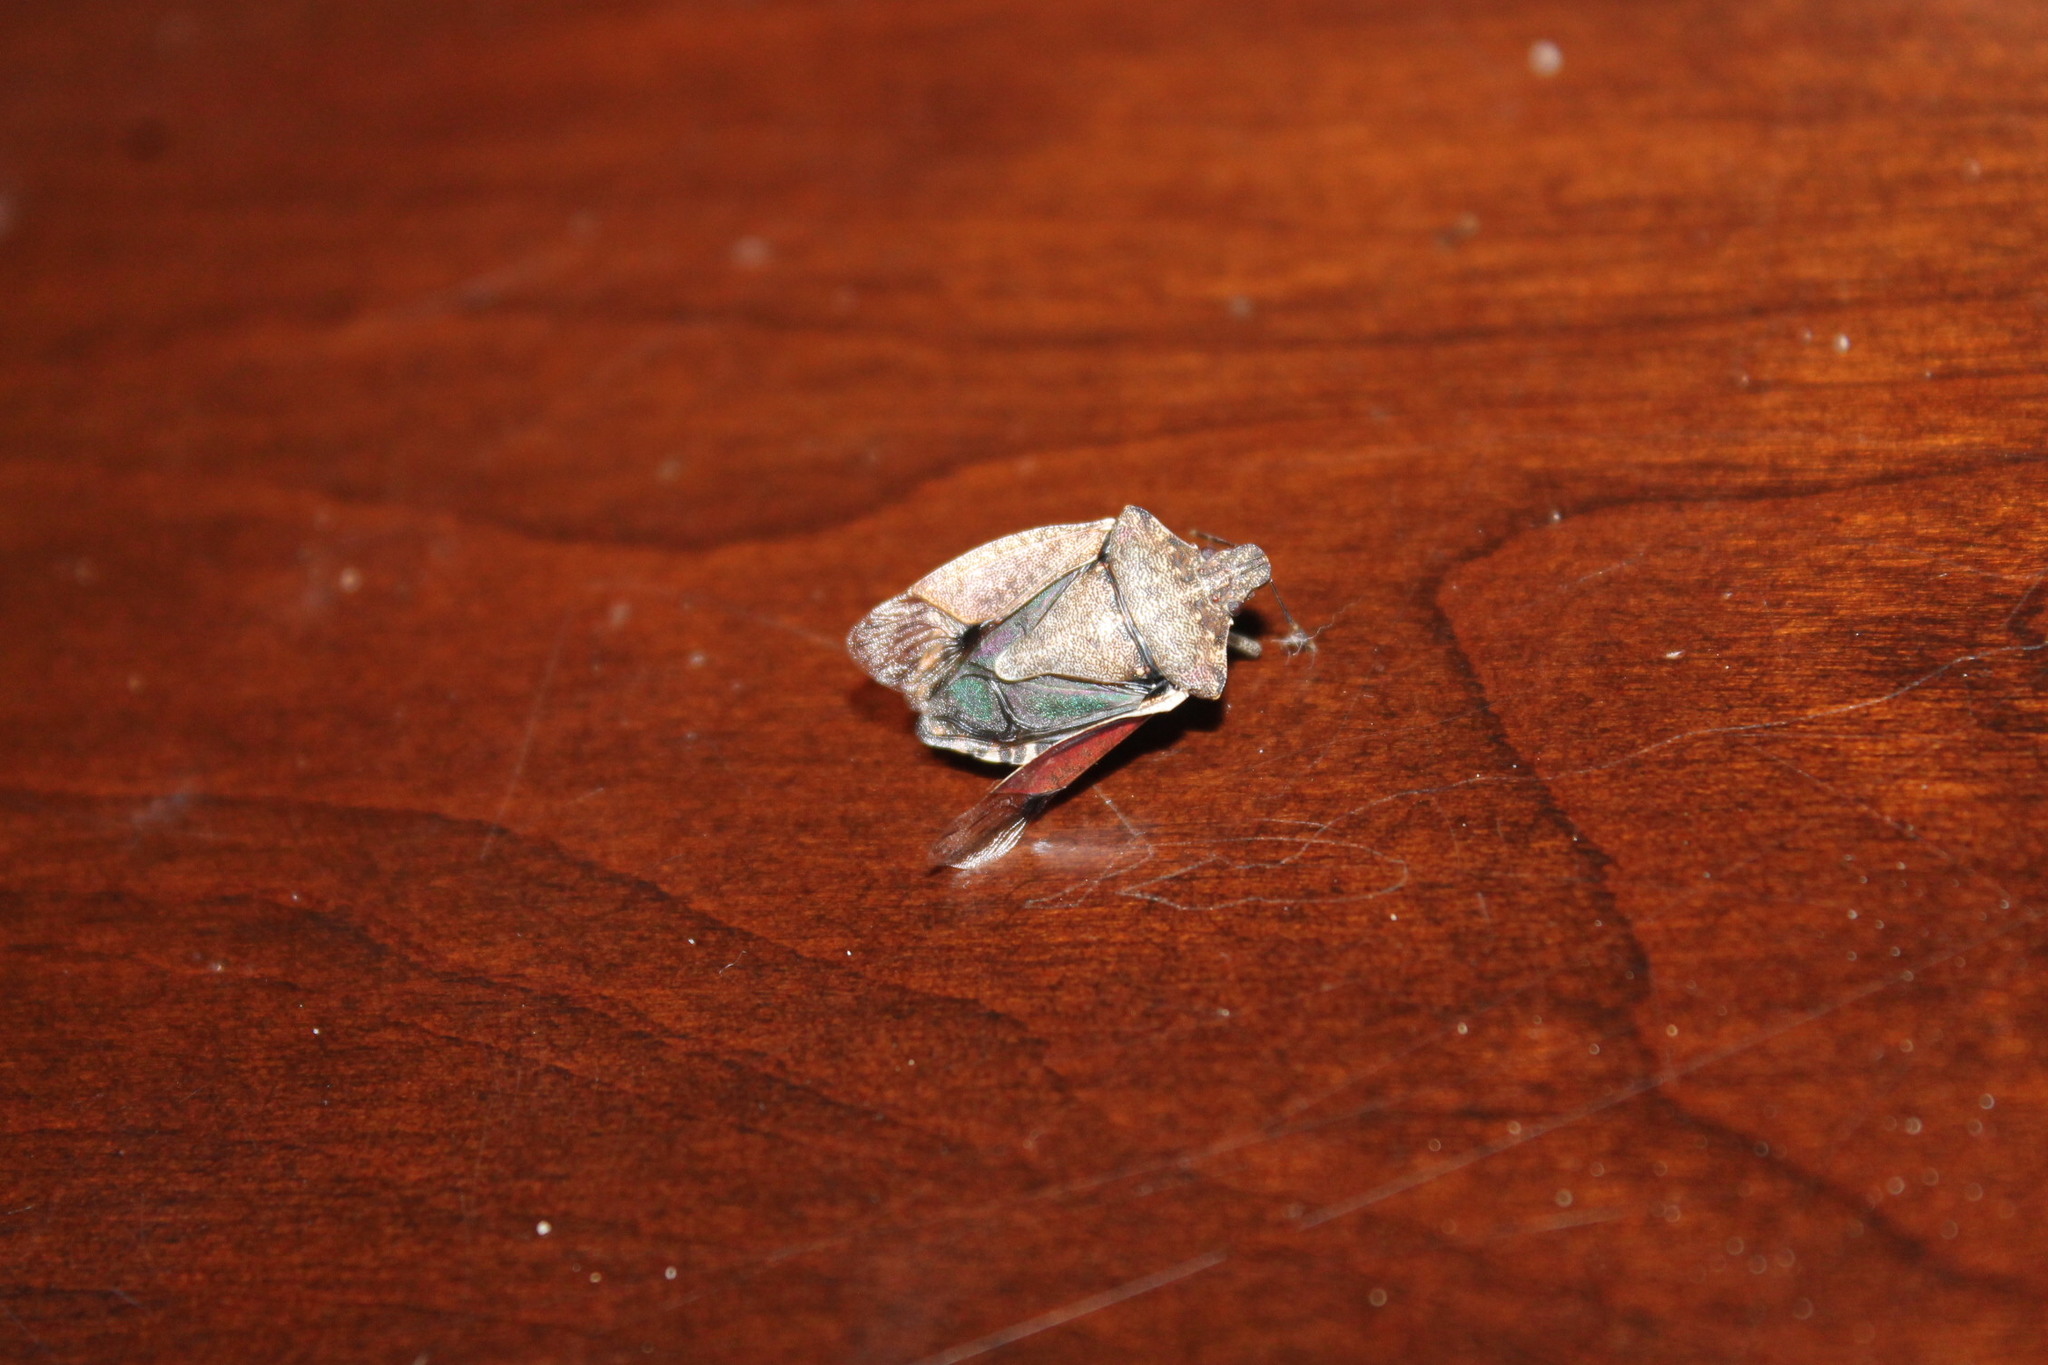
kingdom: Animalia
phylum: Arthropoda
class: Insecta
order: Hemiptera
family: Pentatomidae
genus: Halyomorpha
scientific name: Halyomorpha halys
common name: Brown marmorated stink bug
